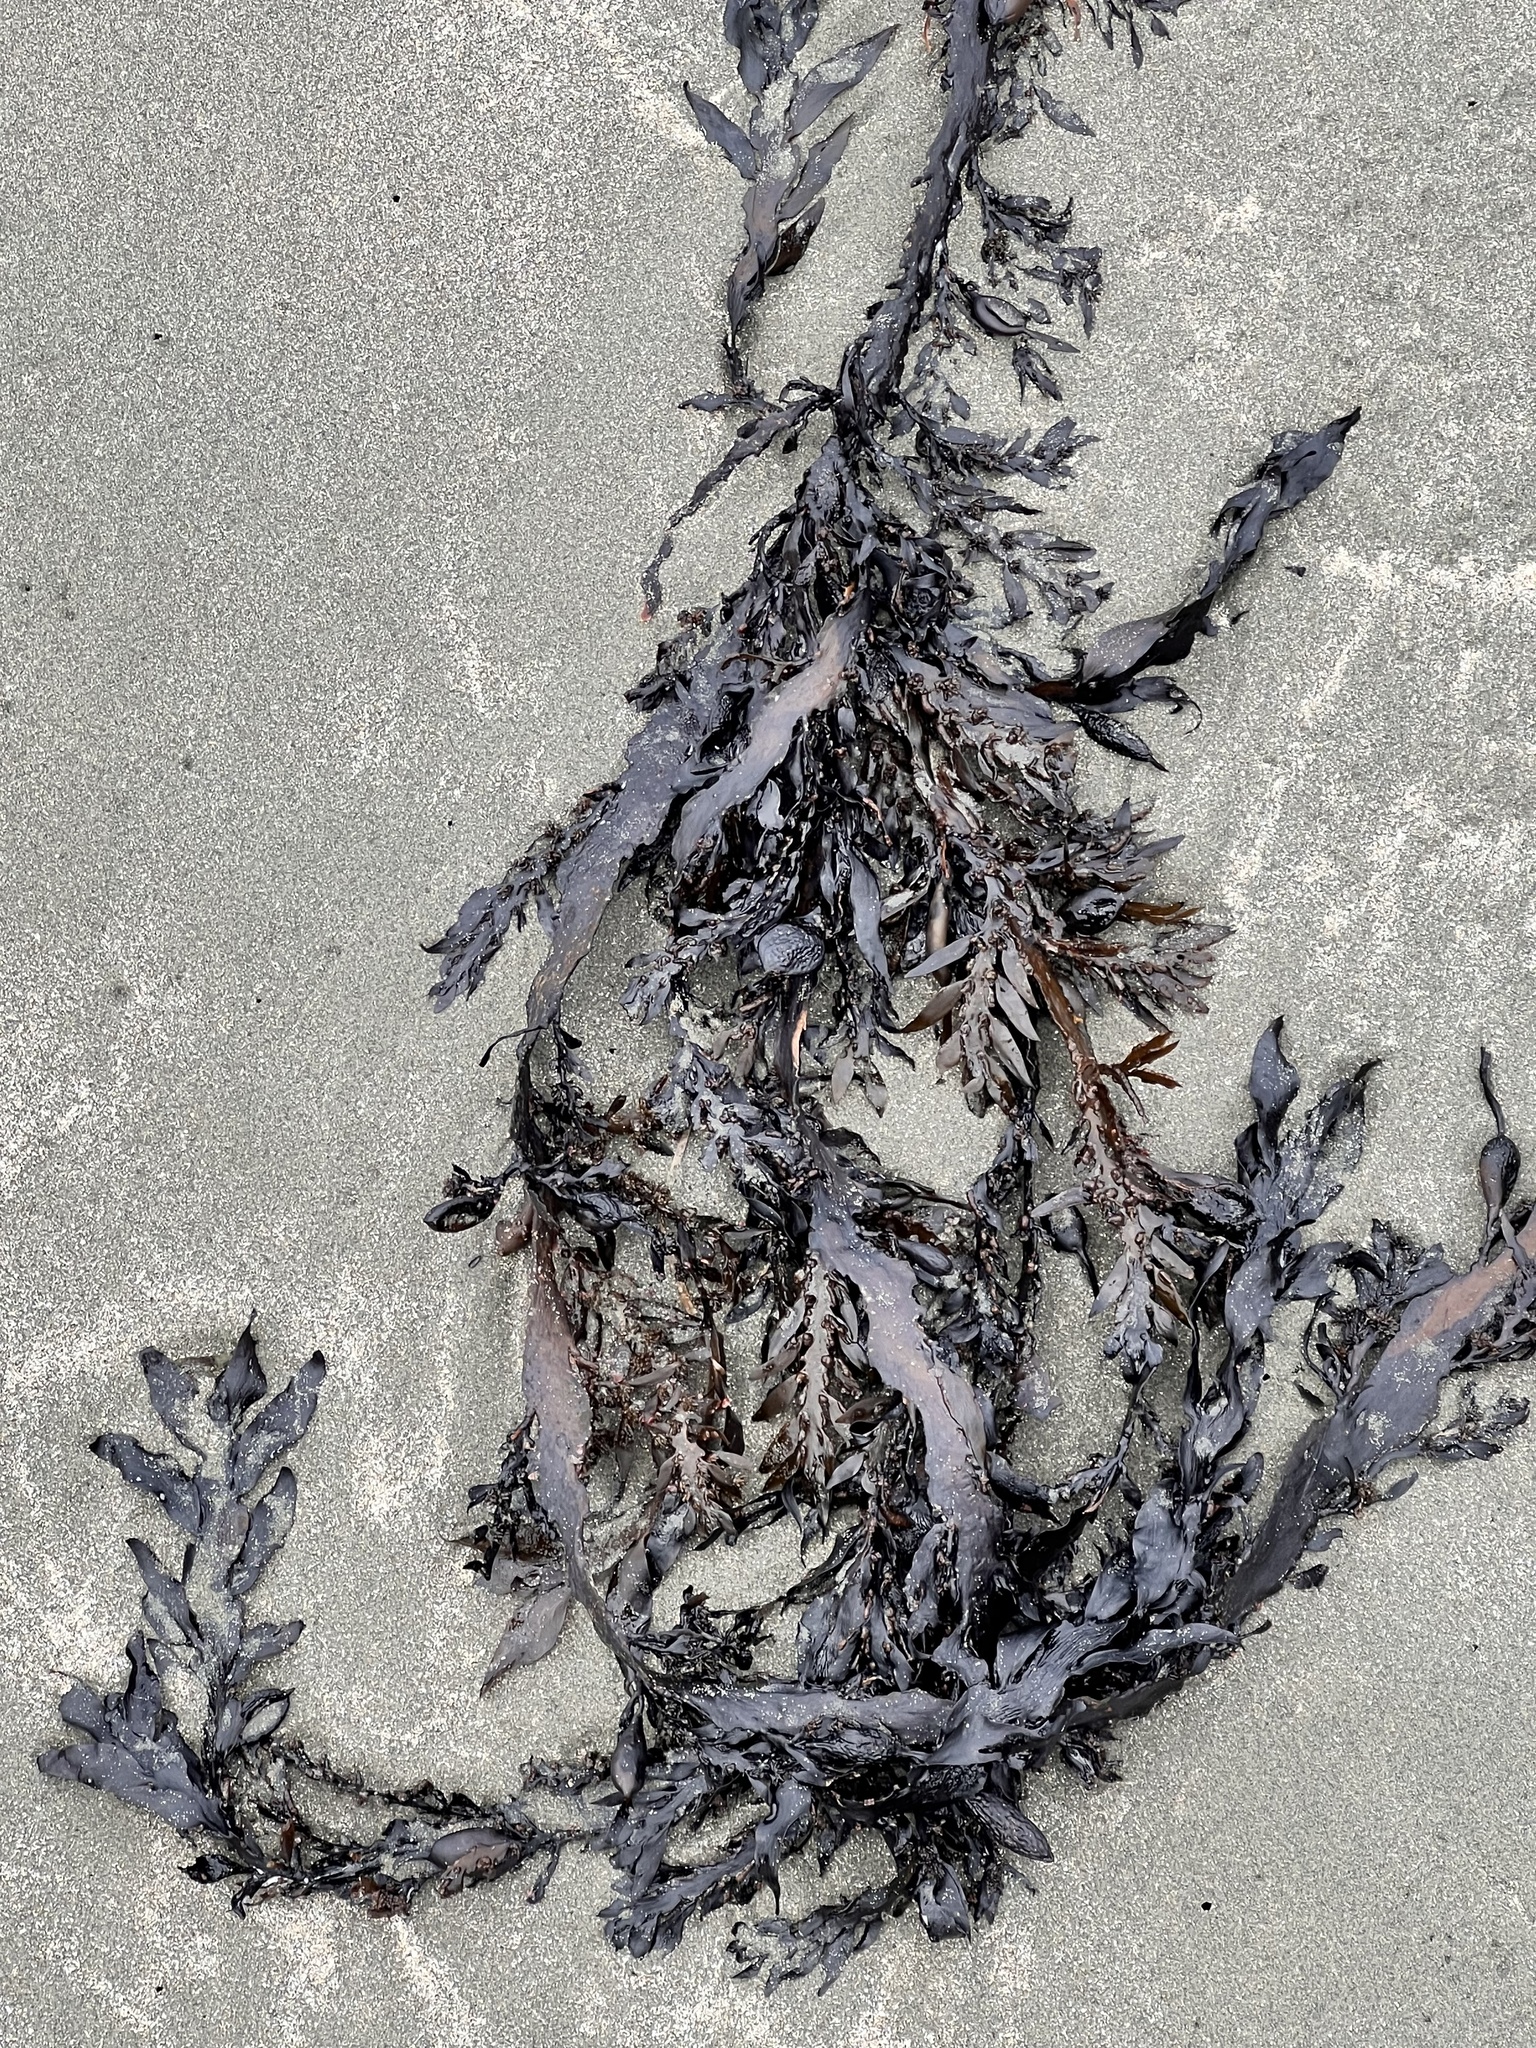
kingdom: Chromista
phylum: Ochrophyta
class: Phaeophyceae
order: Fucales
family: Sargassaceae
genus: Carpophyllum
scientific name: Carpophyllum maschalocarpum
